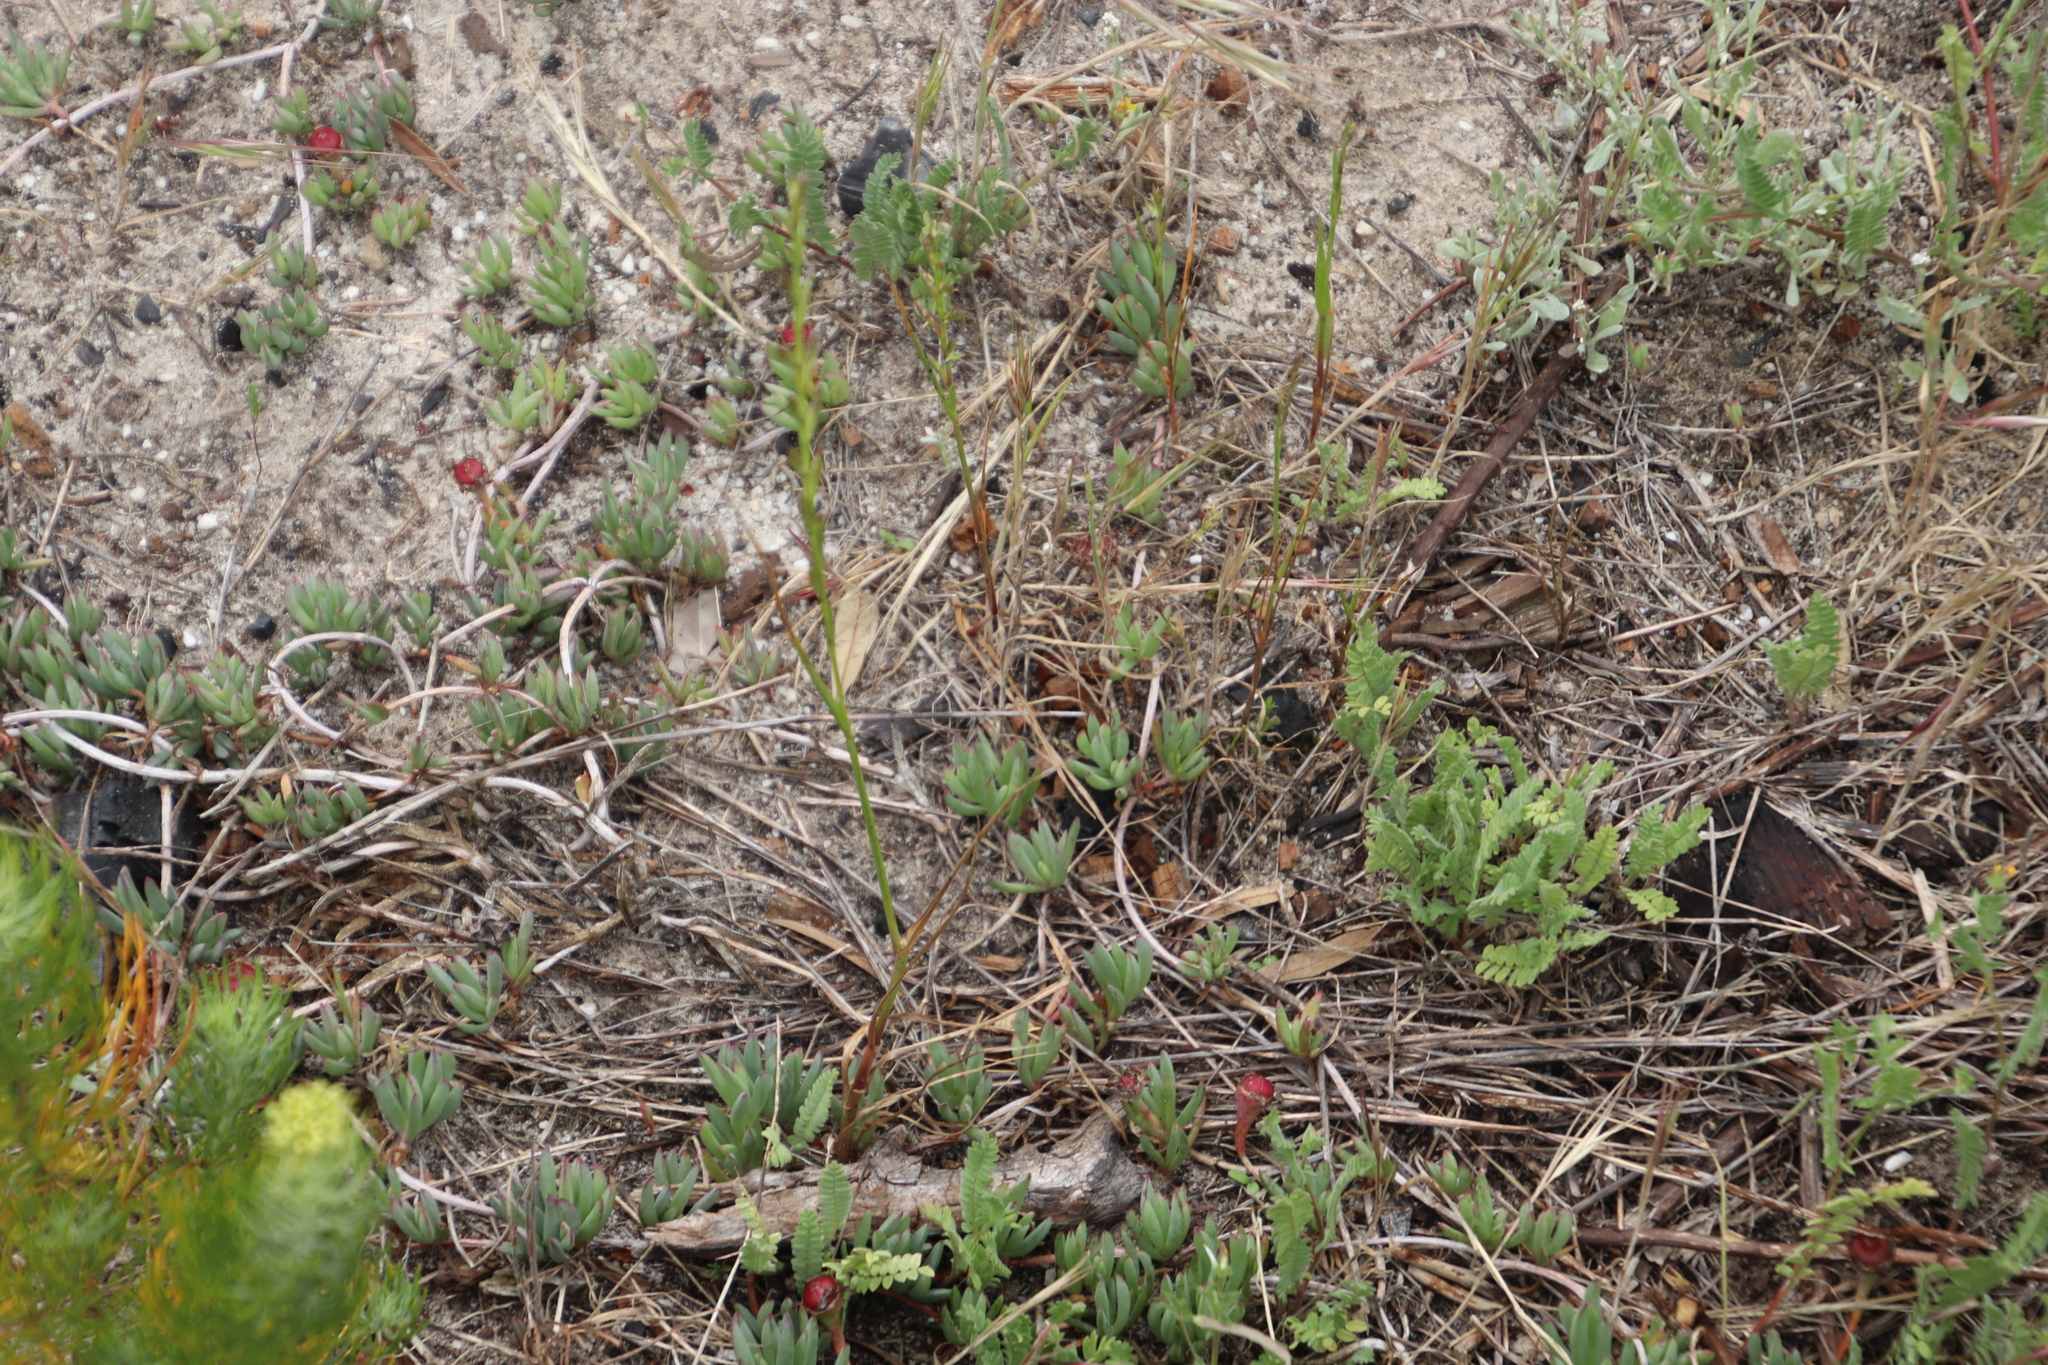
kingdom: Plantae
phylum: Tracheophyta
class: Magnoliopsida
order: Caryophyllales
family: Aizoaceae
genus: Lampranthus
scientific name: Lampranthus reptans
